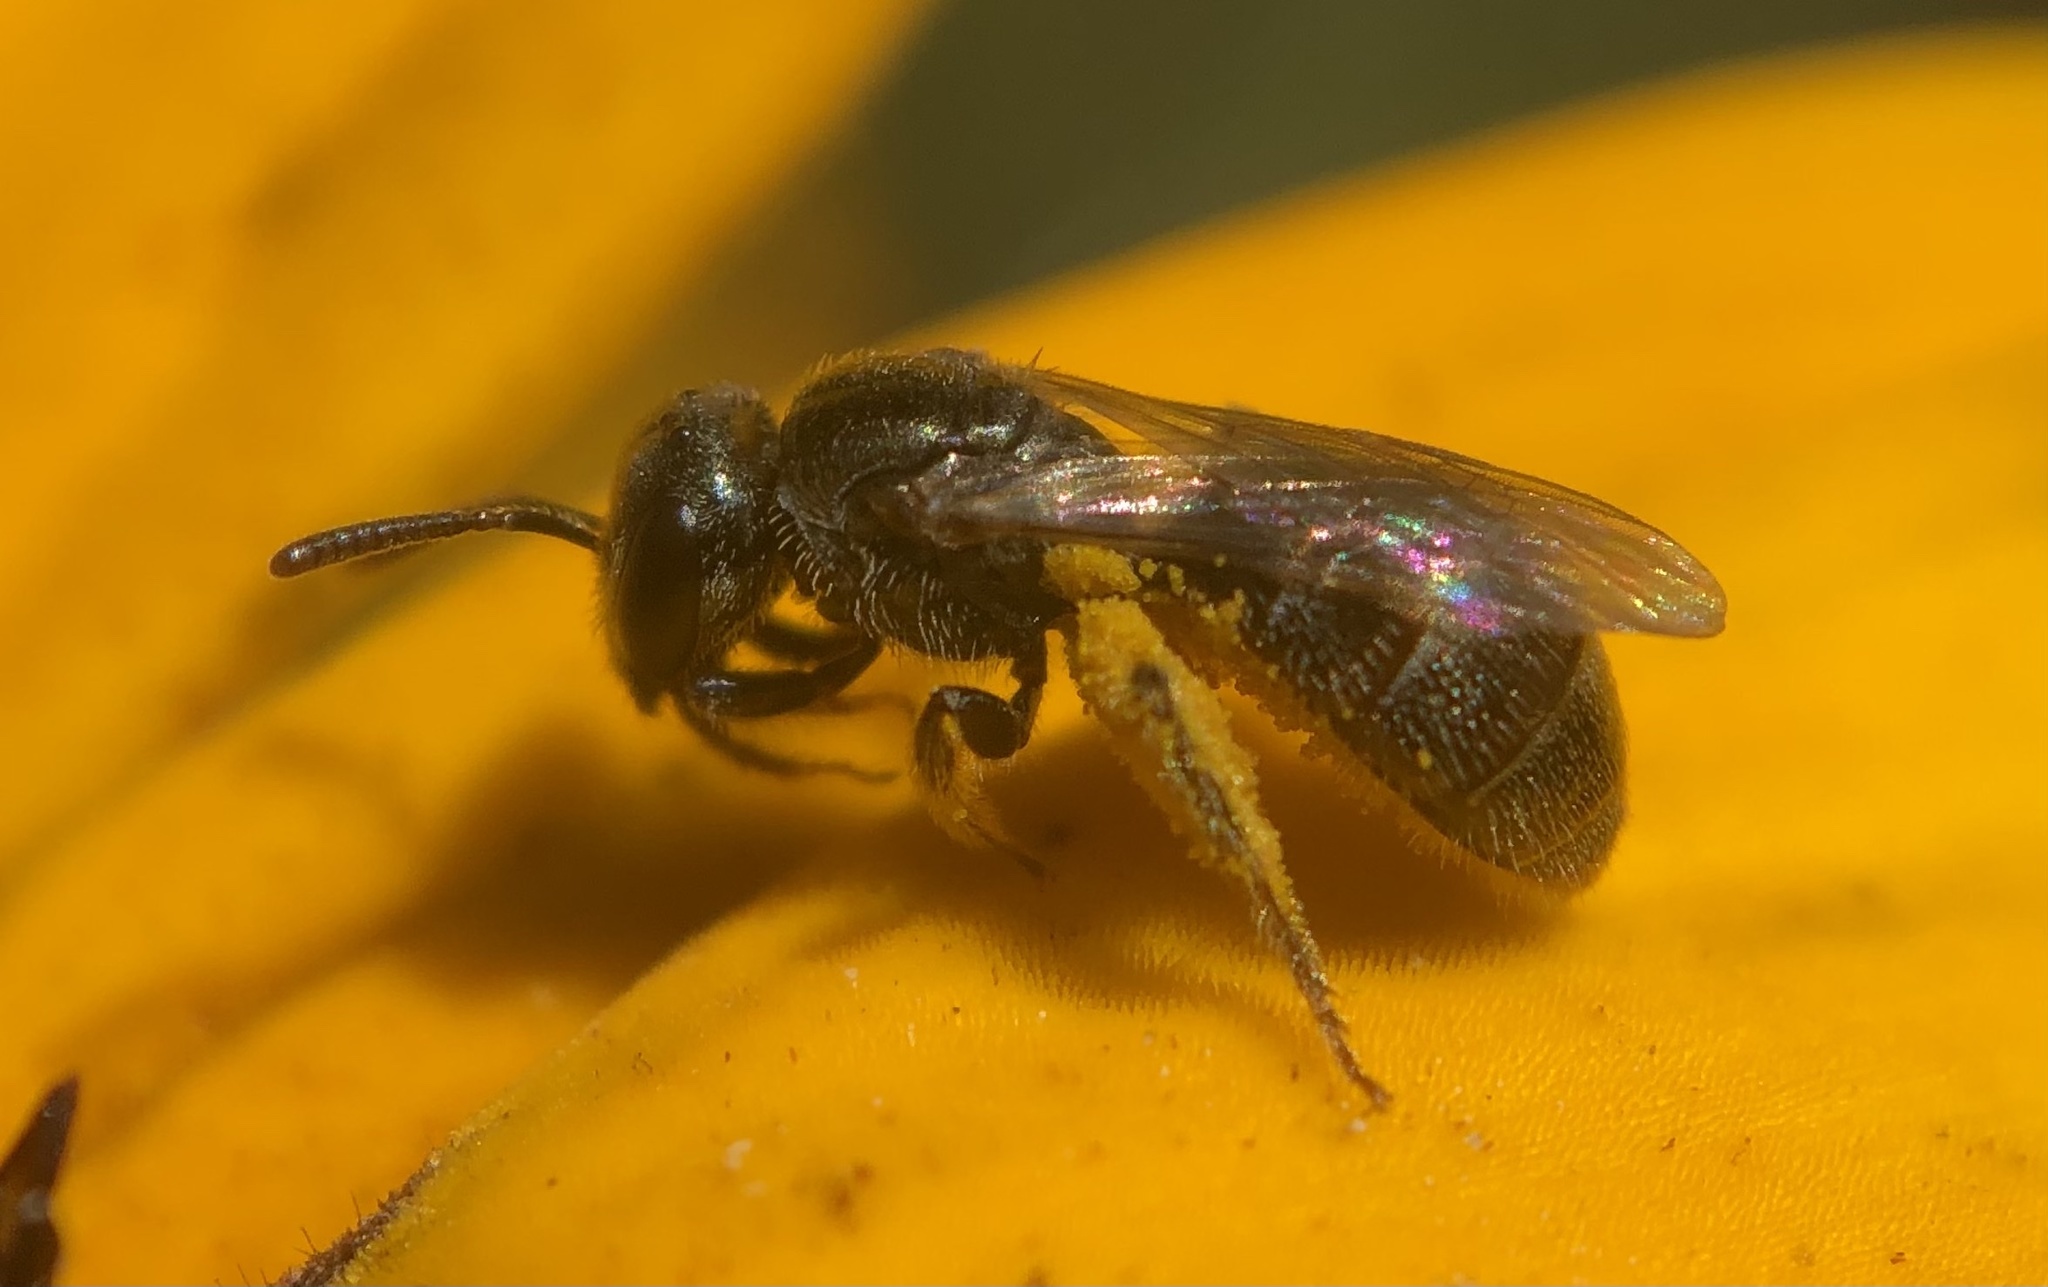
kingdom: Animalia
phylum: Arthropoda
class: Insecta
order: Hymenoptera
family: Halictidae
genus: Lasioglossum
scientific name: Lasioglossum imitatum
